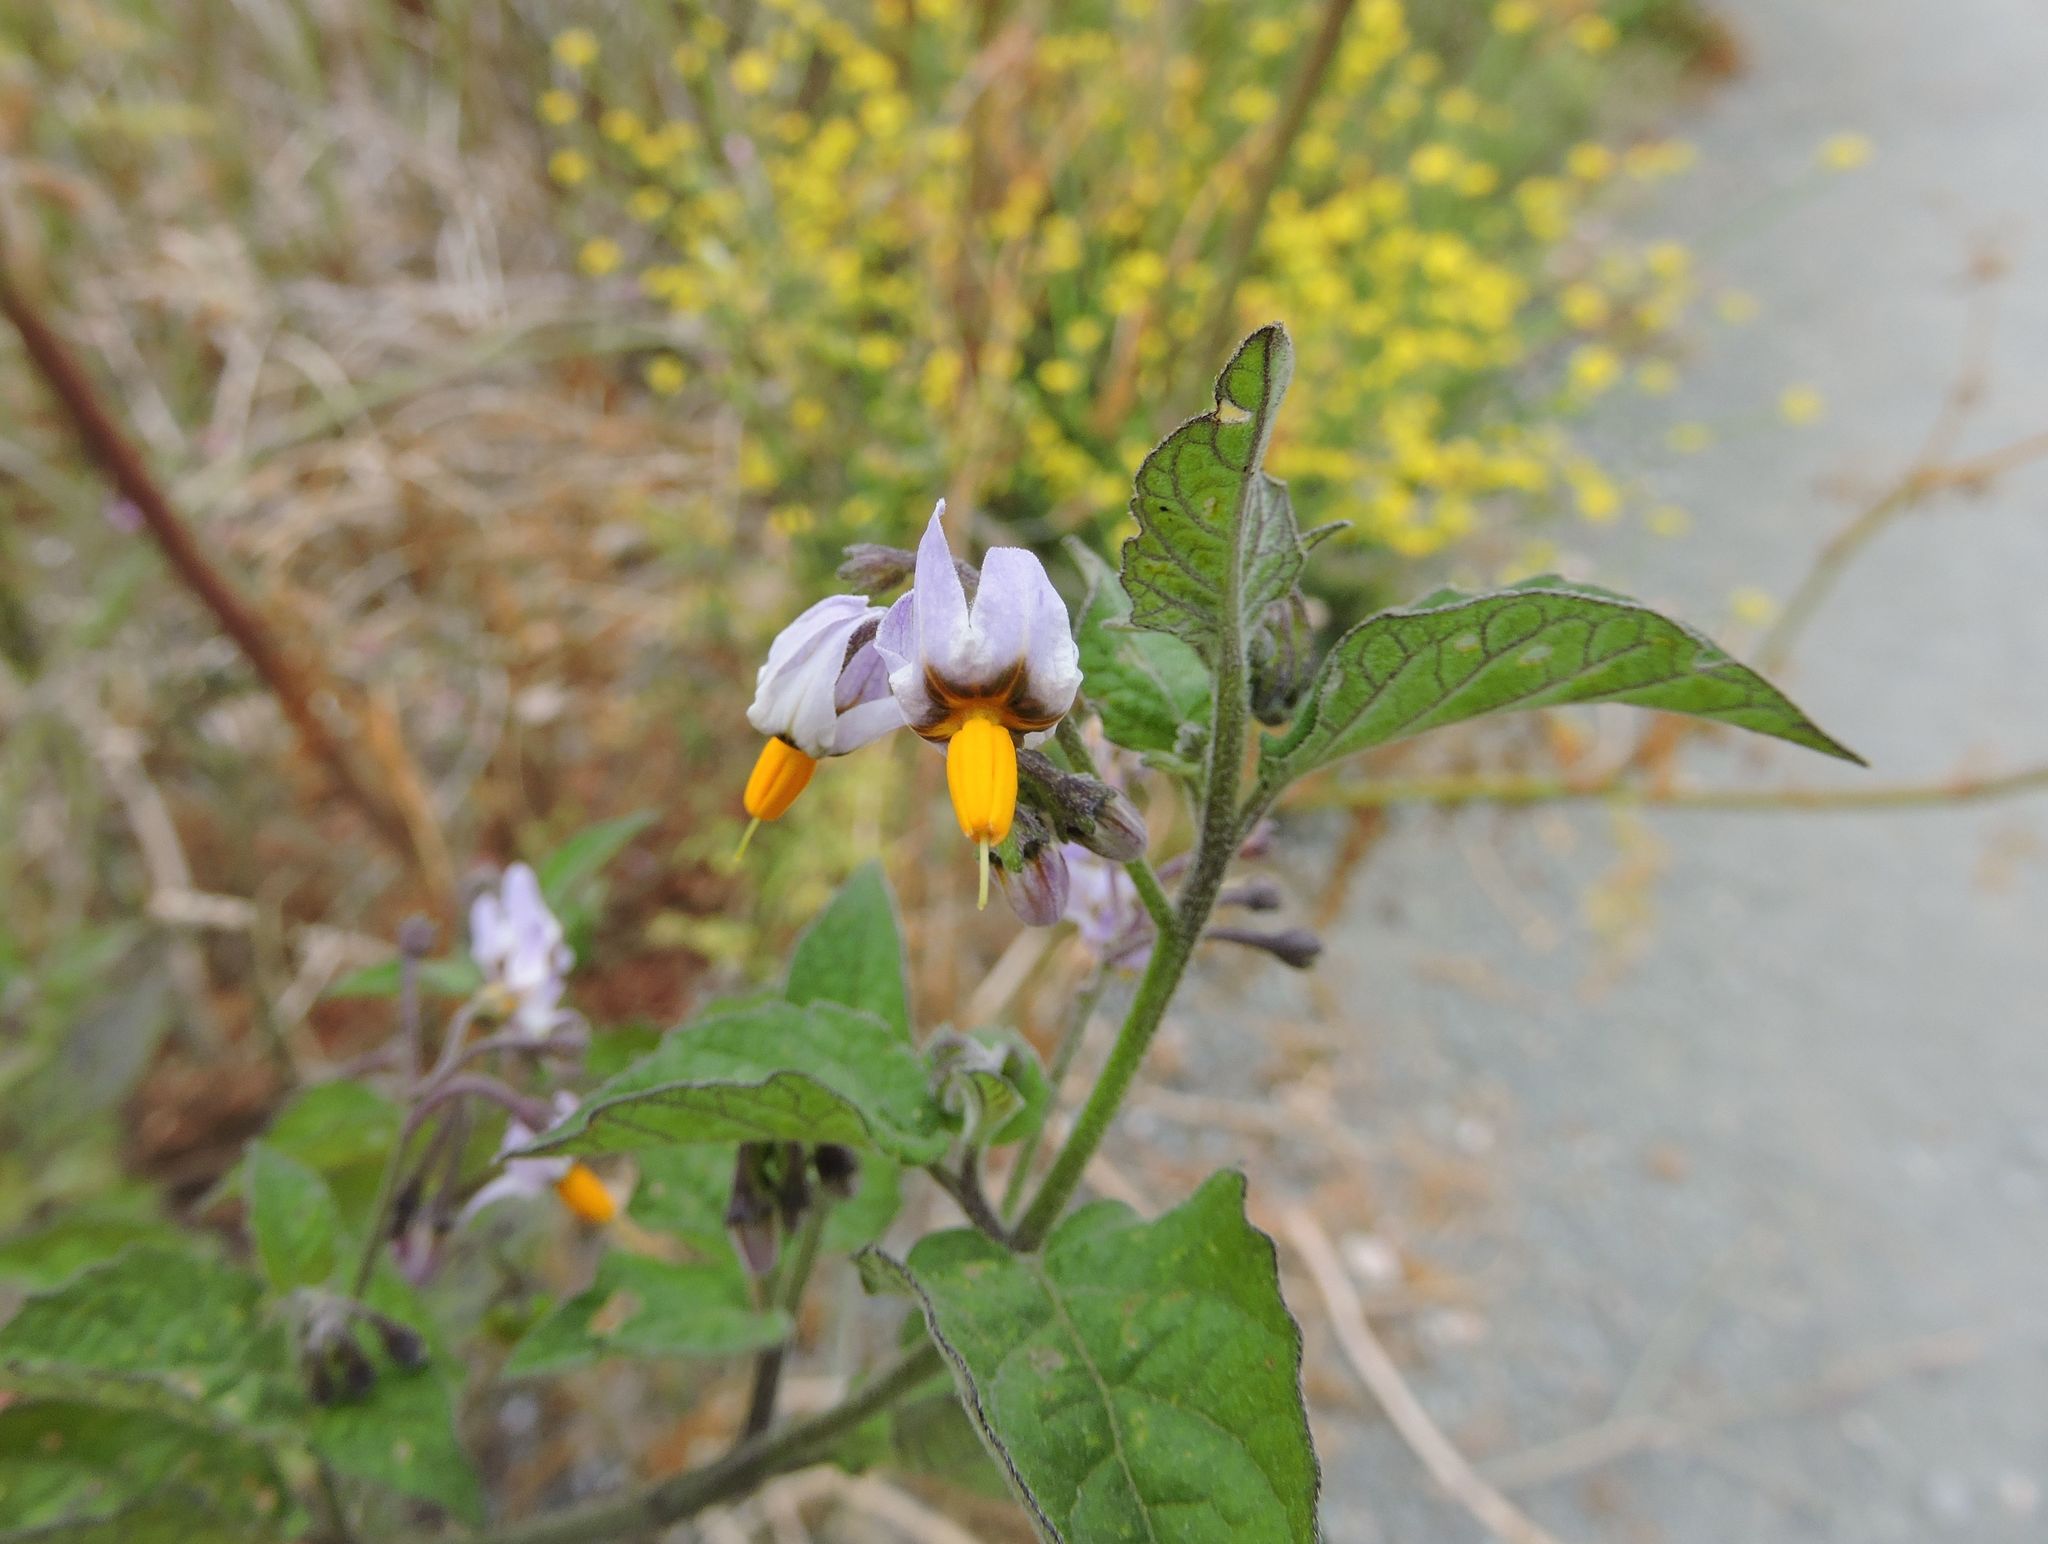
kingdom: Plantae
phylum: Tracheophyta
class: Magnoliopsida
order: Solanales
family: Solanaceae
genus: Solanum
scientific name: Solanum douglasii
